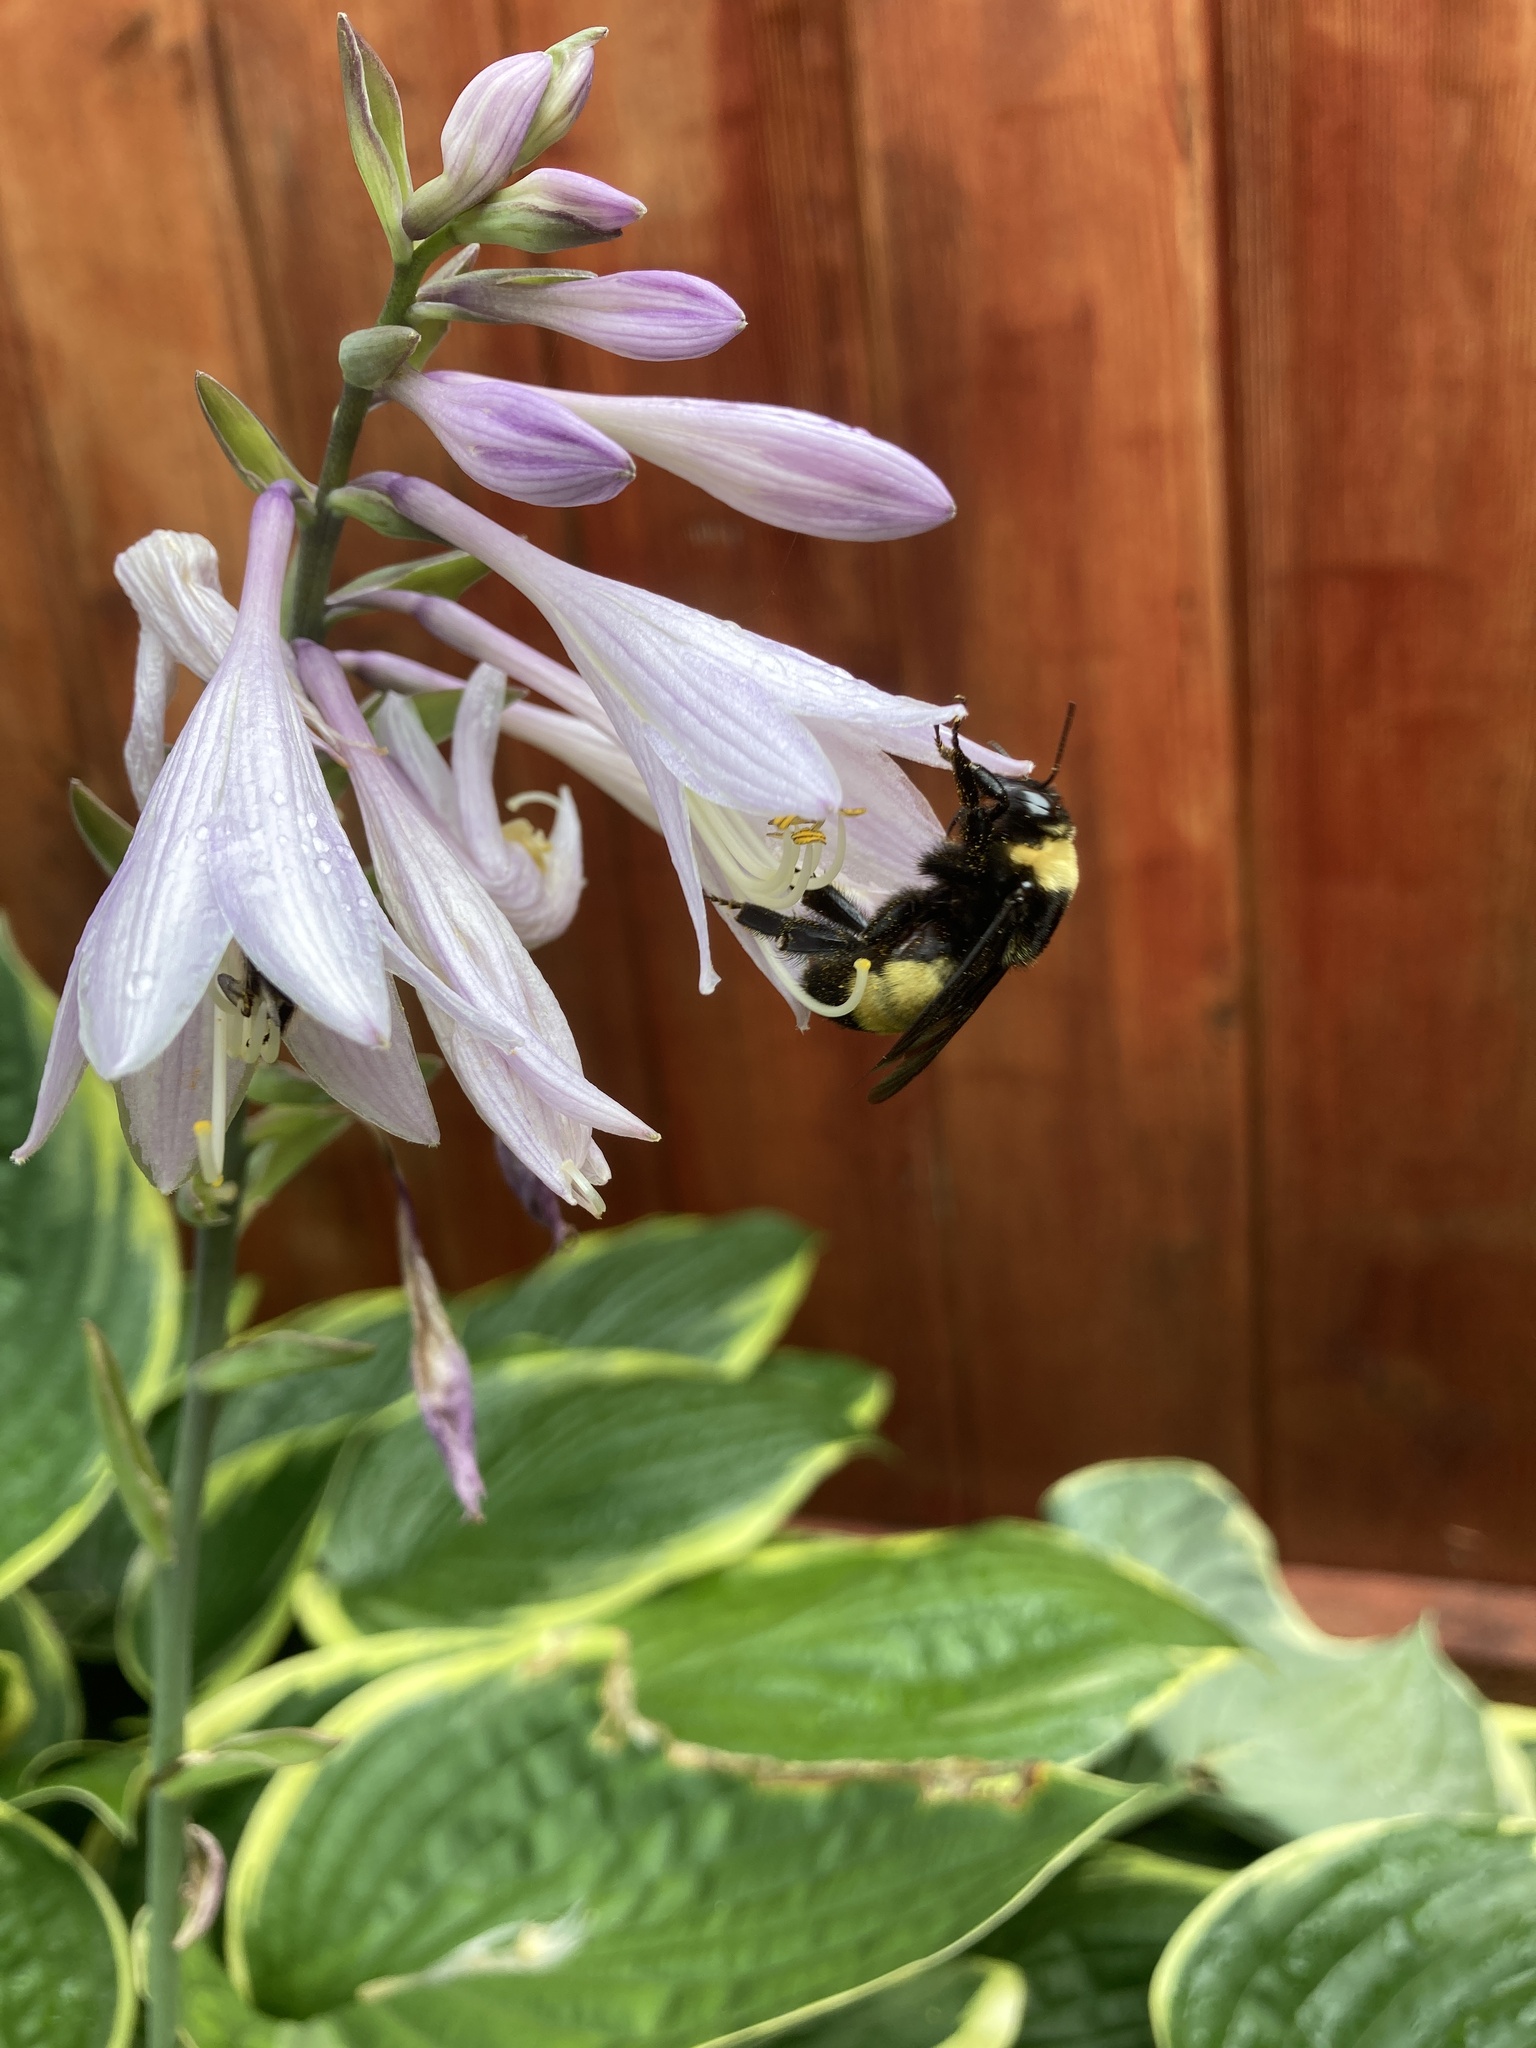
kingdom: Animalia
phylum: Arthropoda
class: Insecta
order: Hymenoptera
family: Apidae
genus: Bombus
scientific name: Bombus auricomus
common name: Black and gold bumble bee
